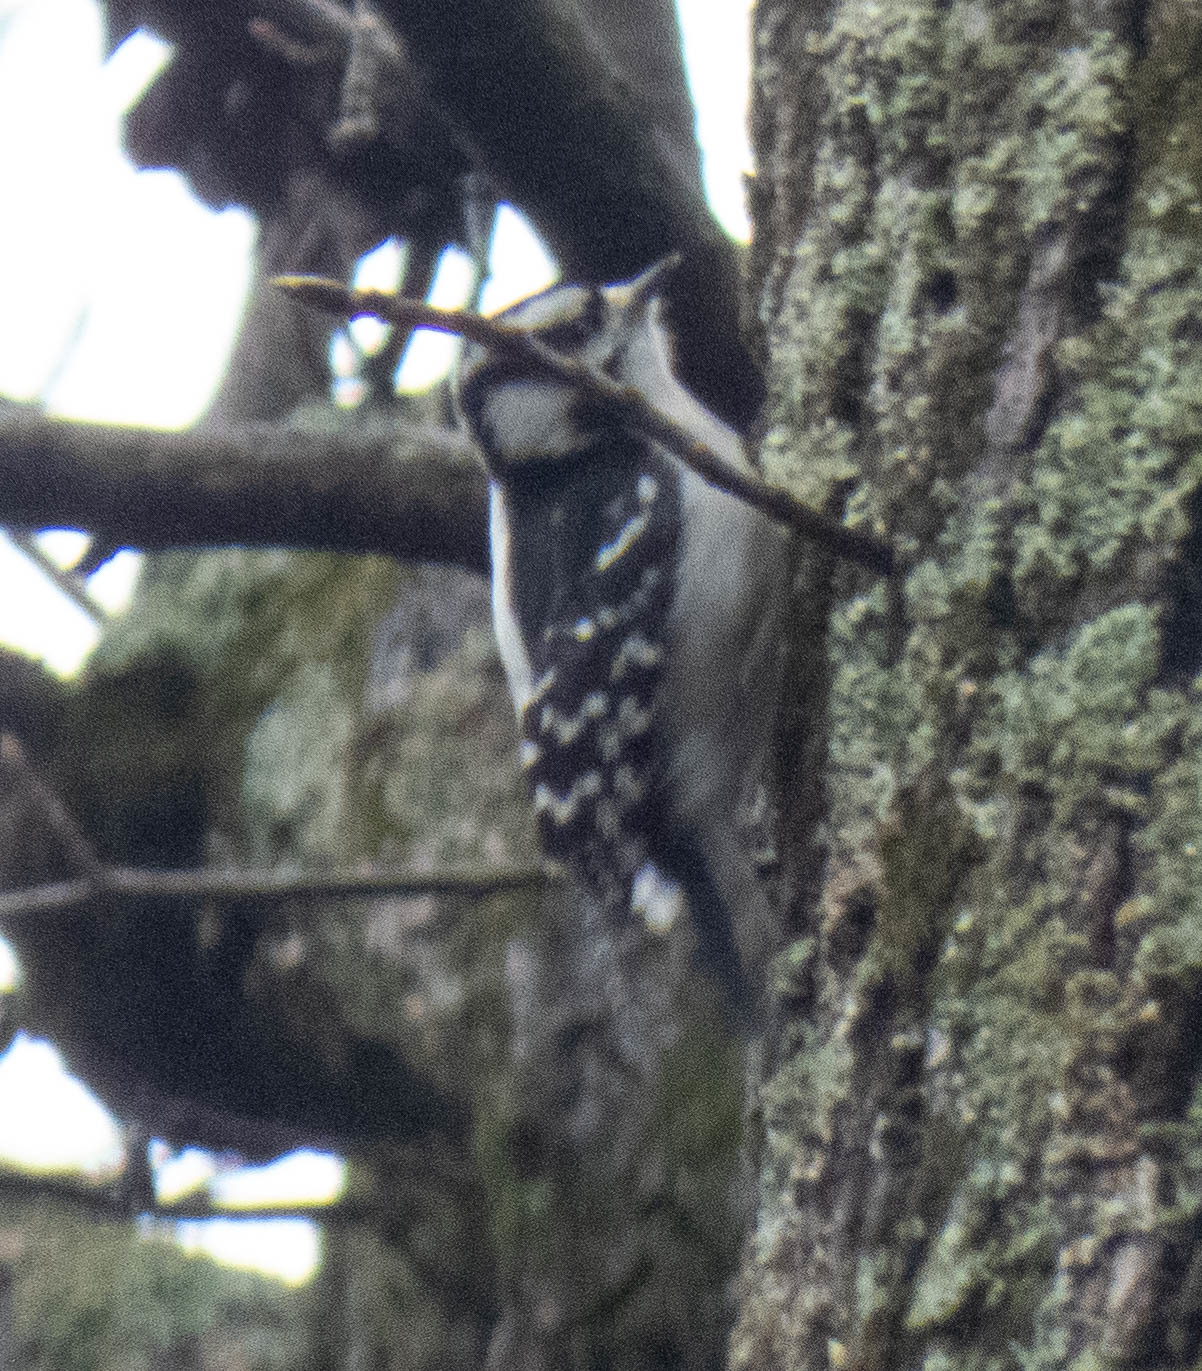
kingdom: Animalia
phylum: Chordata
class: Aves
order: Piciformes
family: Picidae
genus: Dryobates
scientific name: Dryobates pubescens
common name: Downy woodpecker
